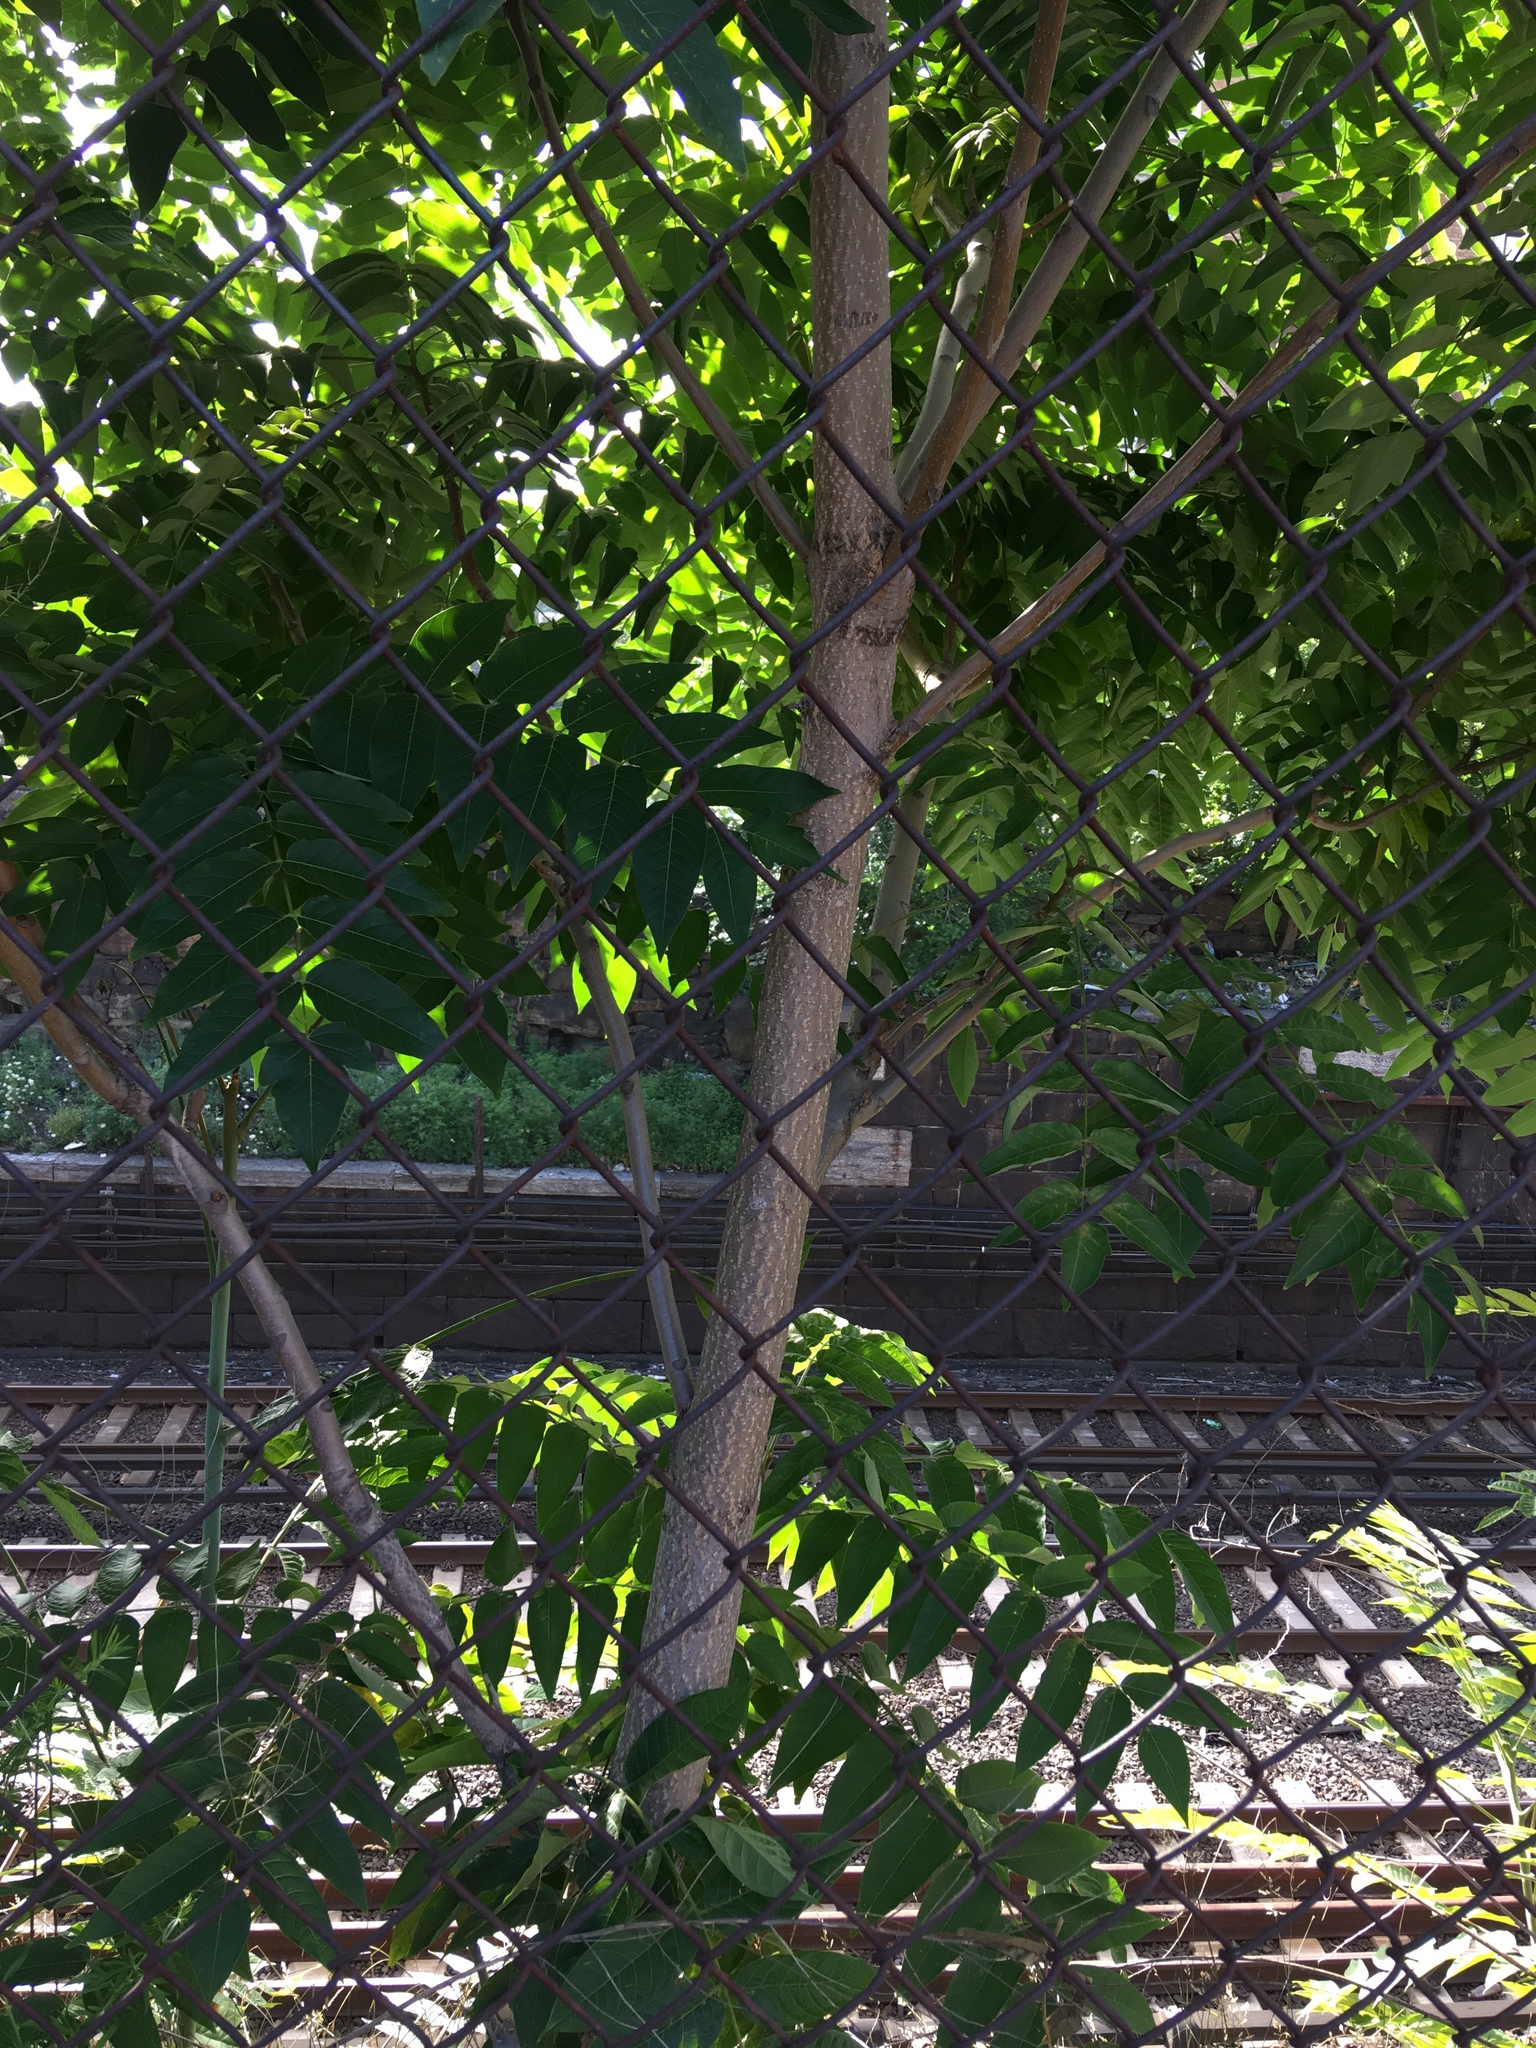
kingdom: Plantae
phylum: Tracheophyta
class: Magnoliopsida
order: Sapindales
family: Simaroubaceae
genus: Ailanthus
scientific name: Ailanthus altissima
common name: Tree-of-heaven
